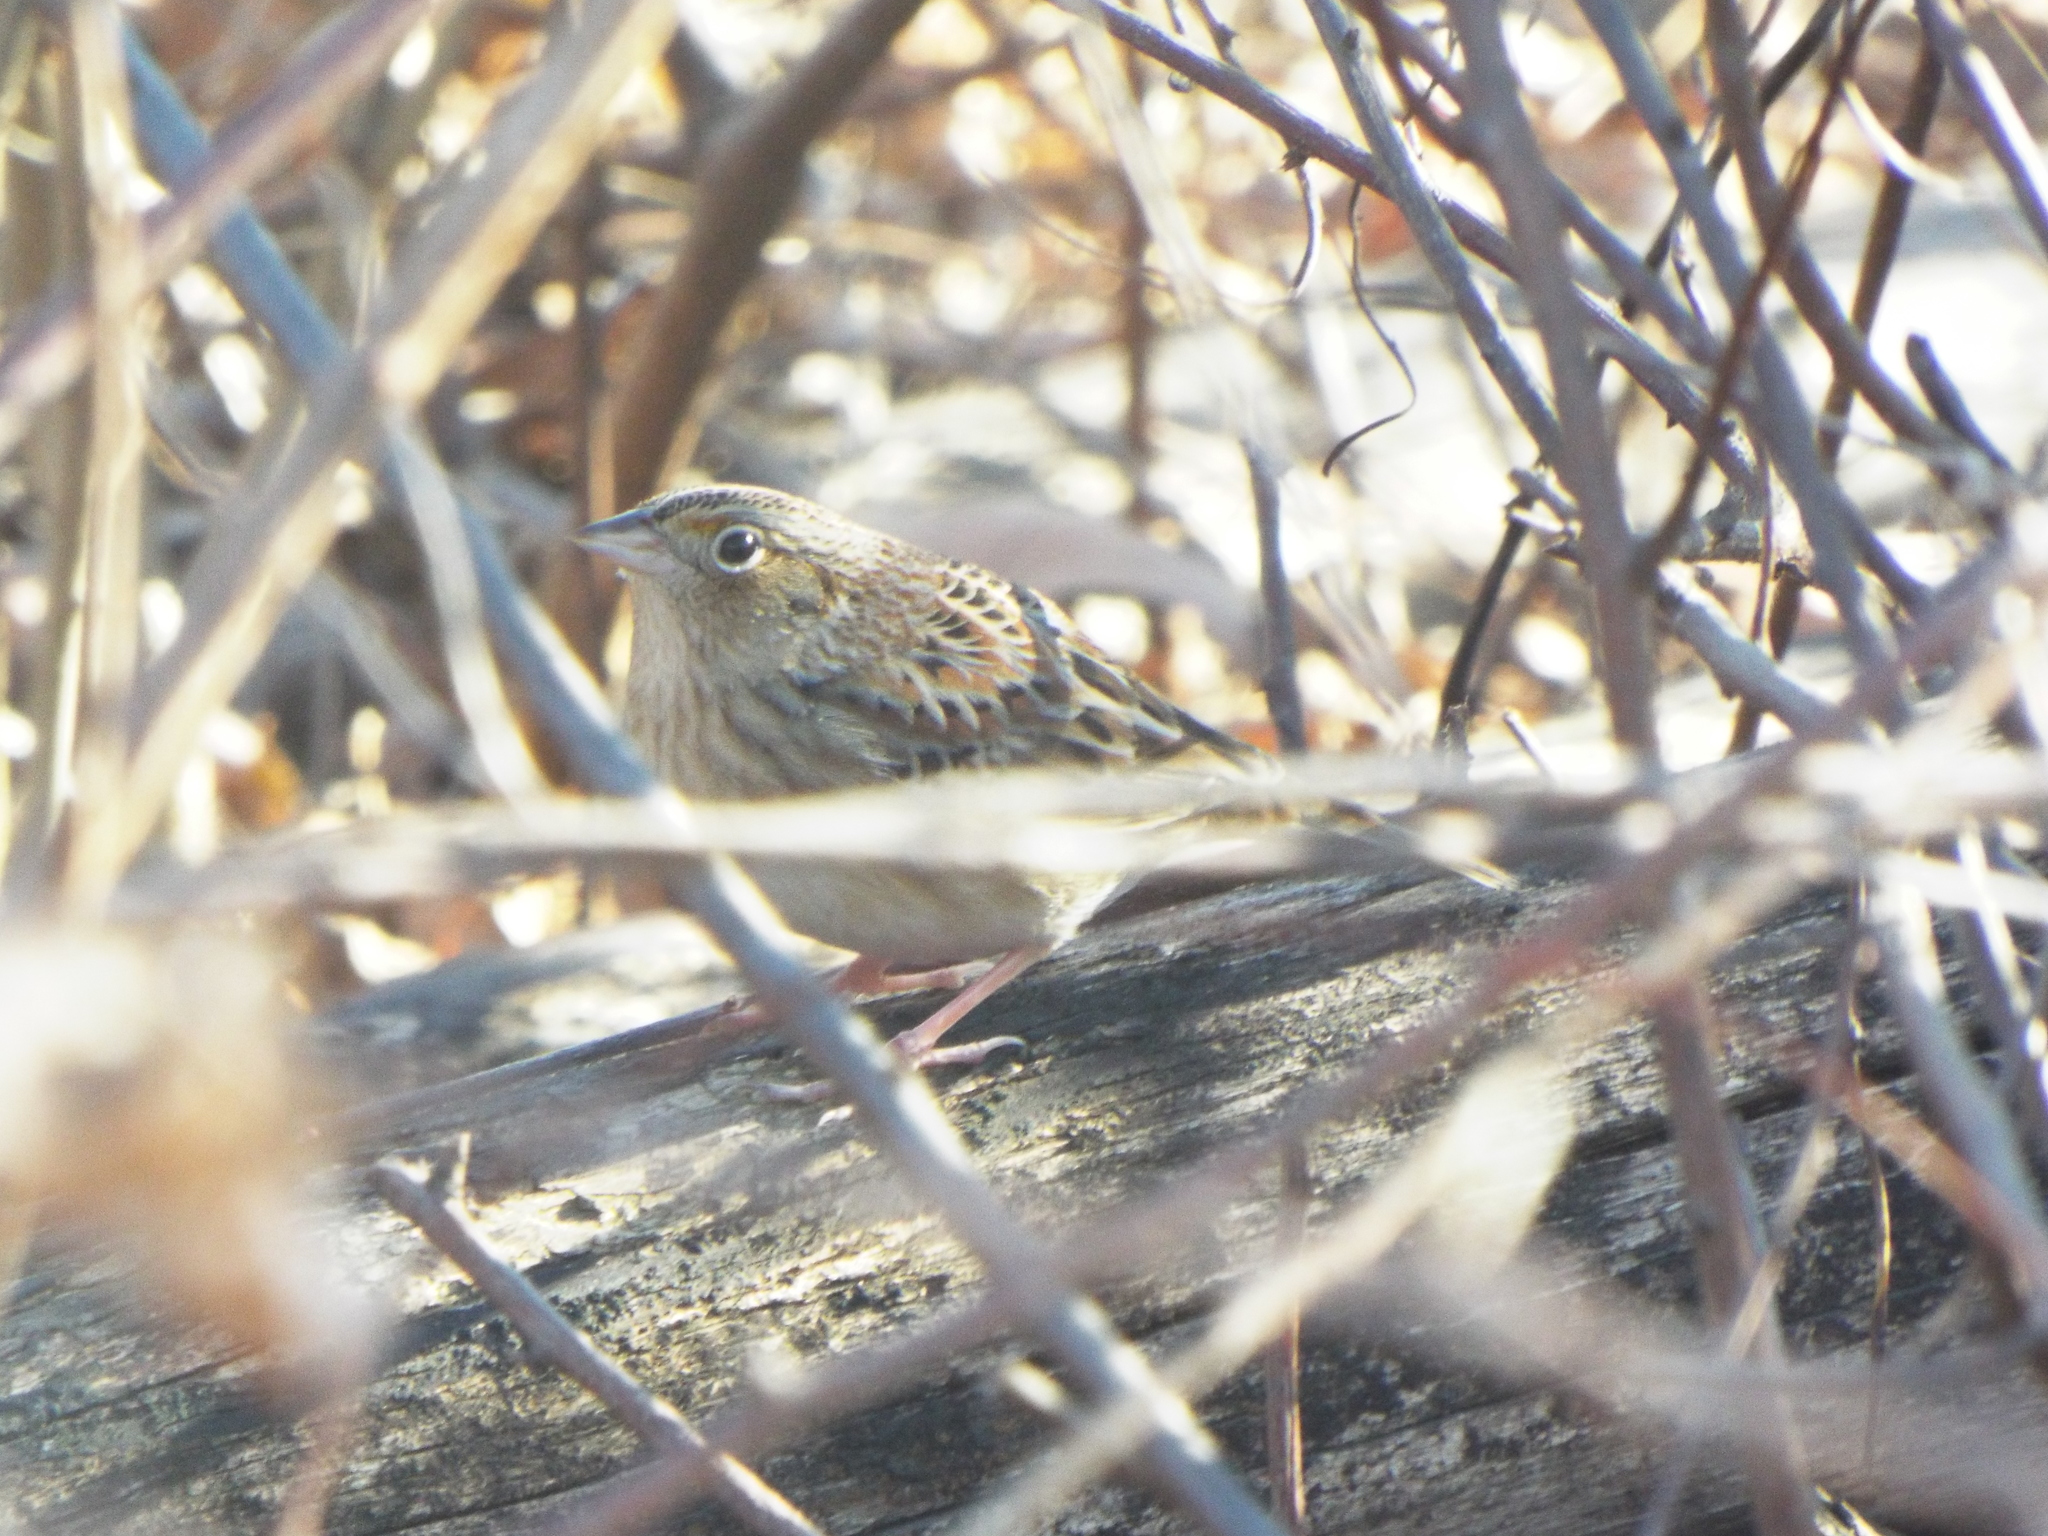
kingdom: Animalia
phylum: Chordata
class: Aves
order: Passeriformes
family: Passerellidae
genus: Ammodramus
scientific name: Ammodramus savannarum
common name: Grasshopper sparrow
